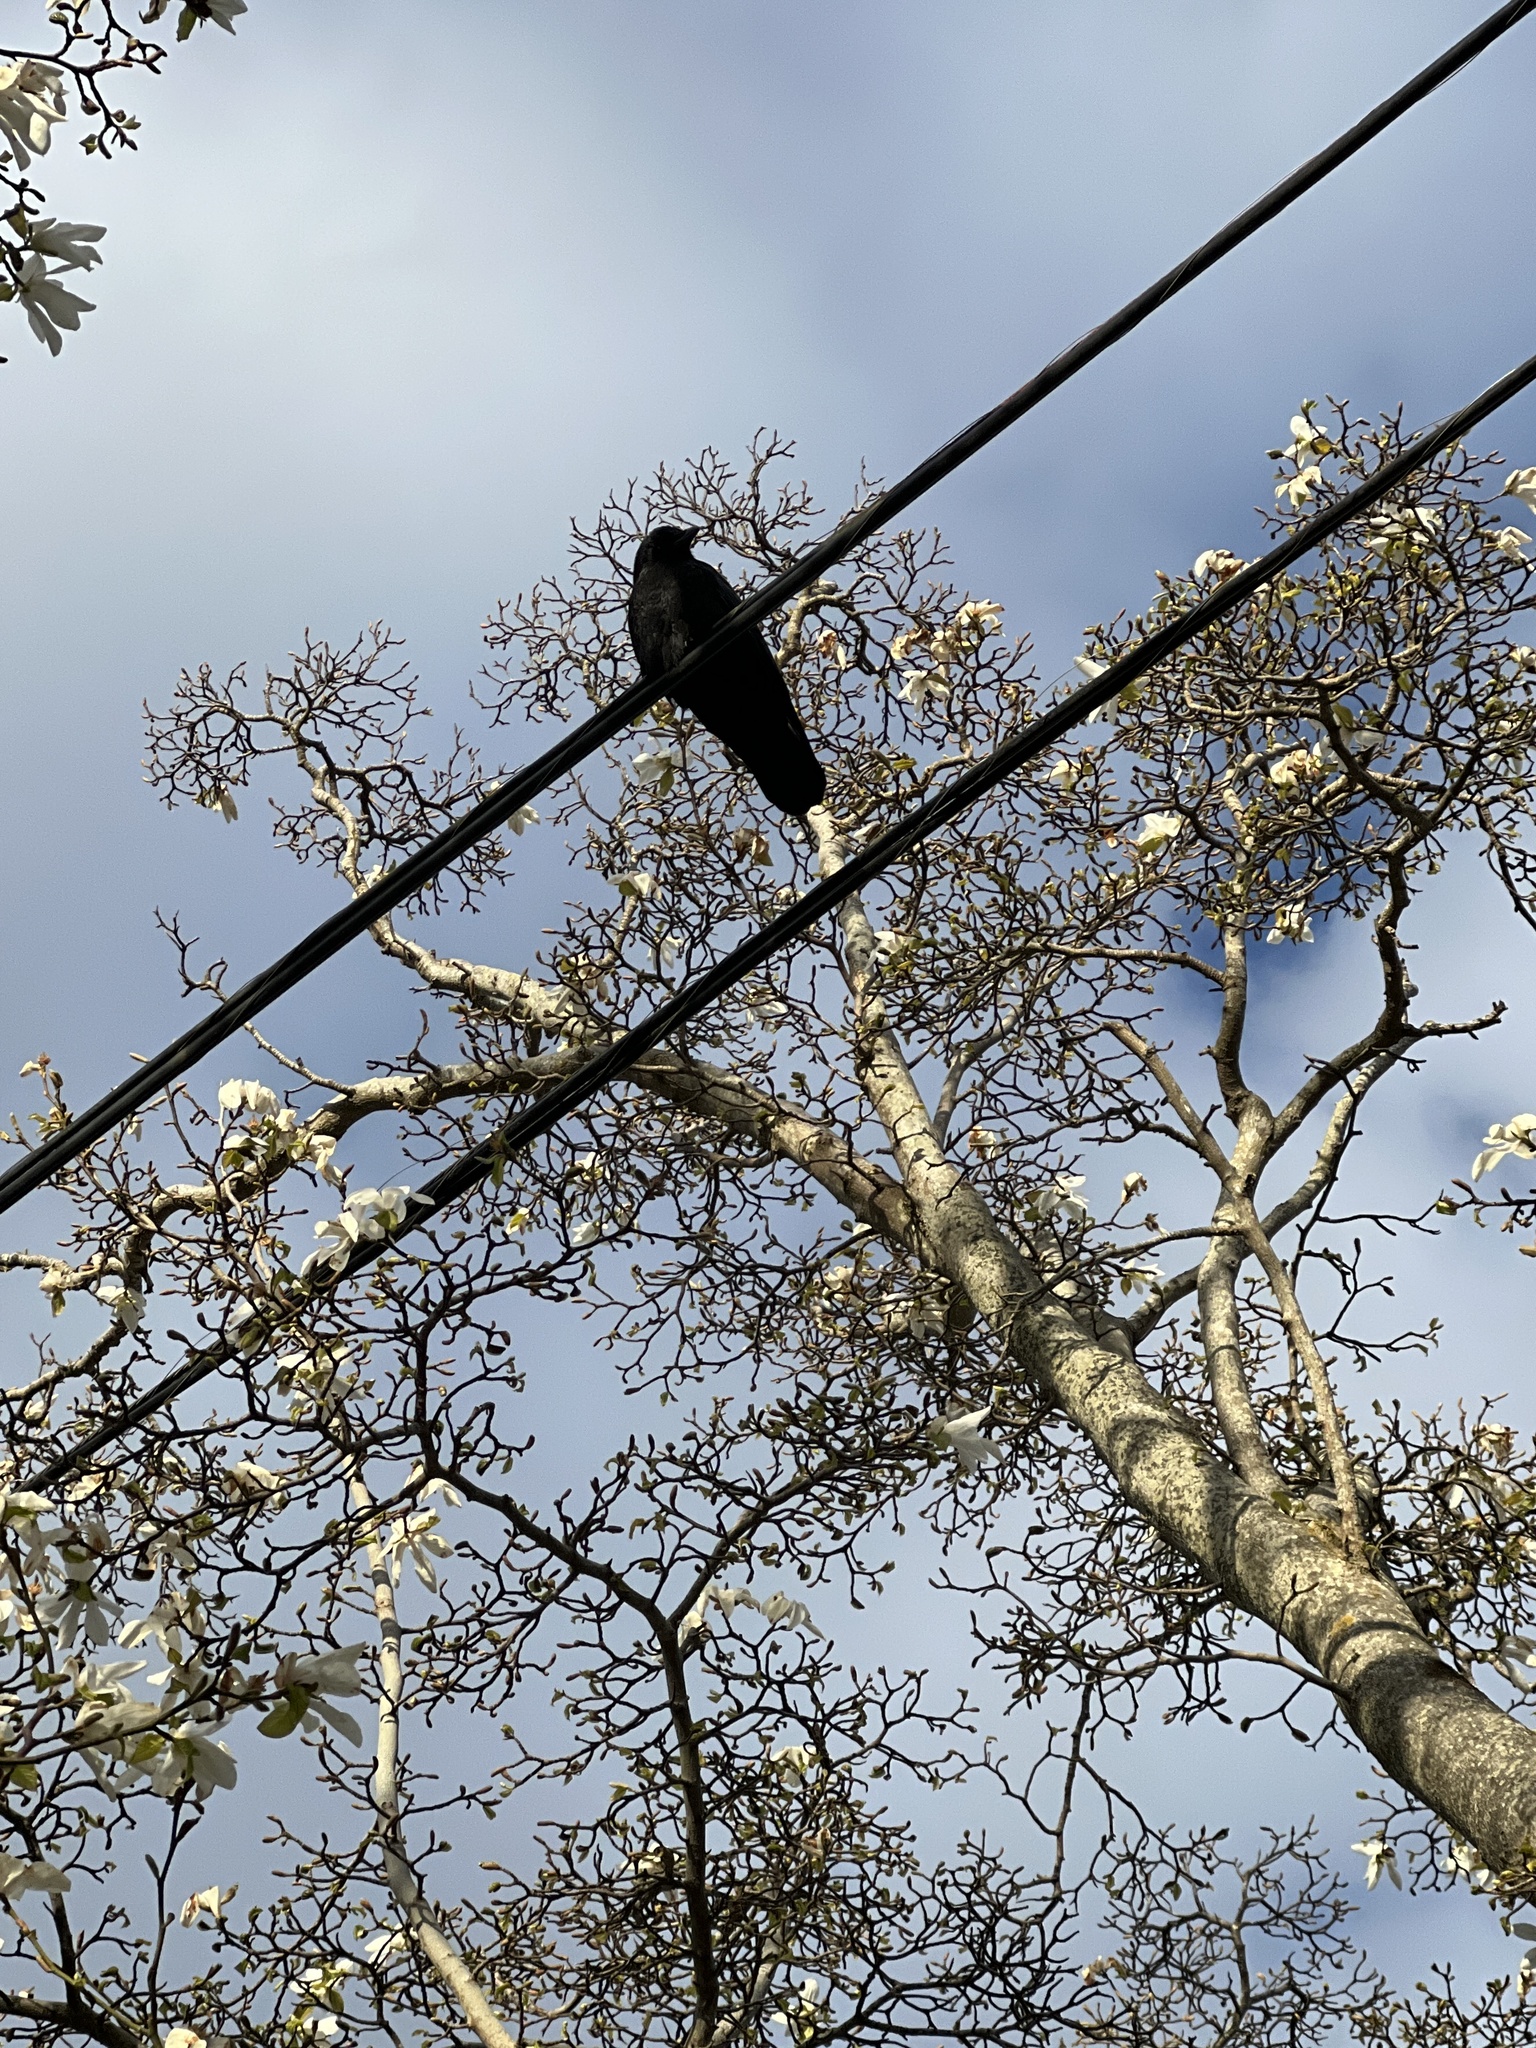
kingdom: Animalia
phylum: Chordata
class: Aves
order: Passeriformes
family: Corvidae
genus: Corvus
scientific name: Corvus brachyrhynchos
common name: American crow
